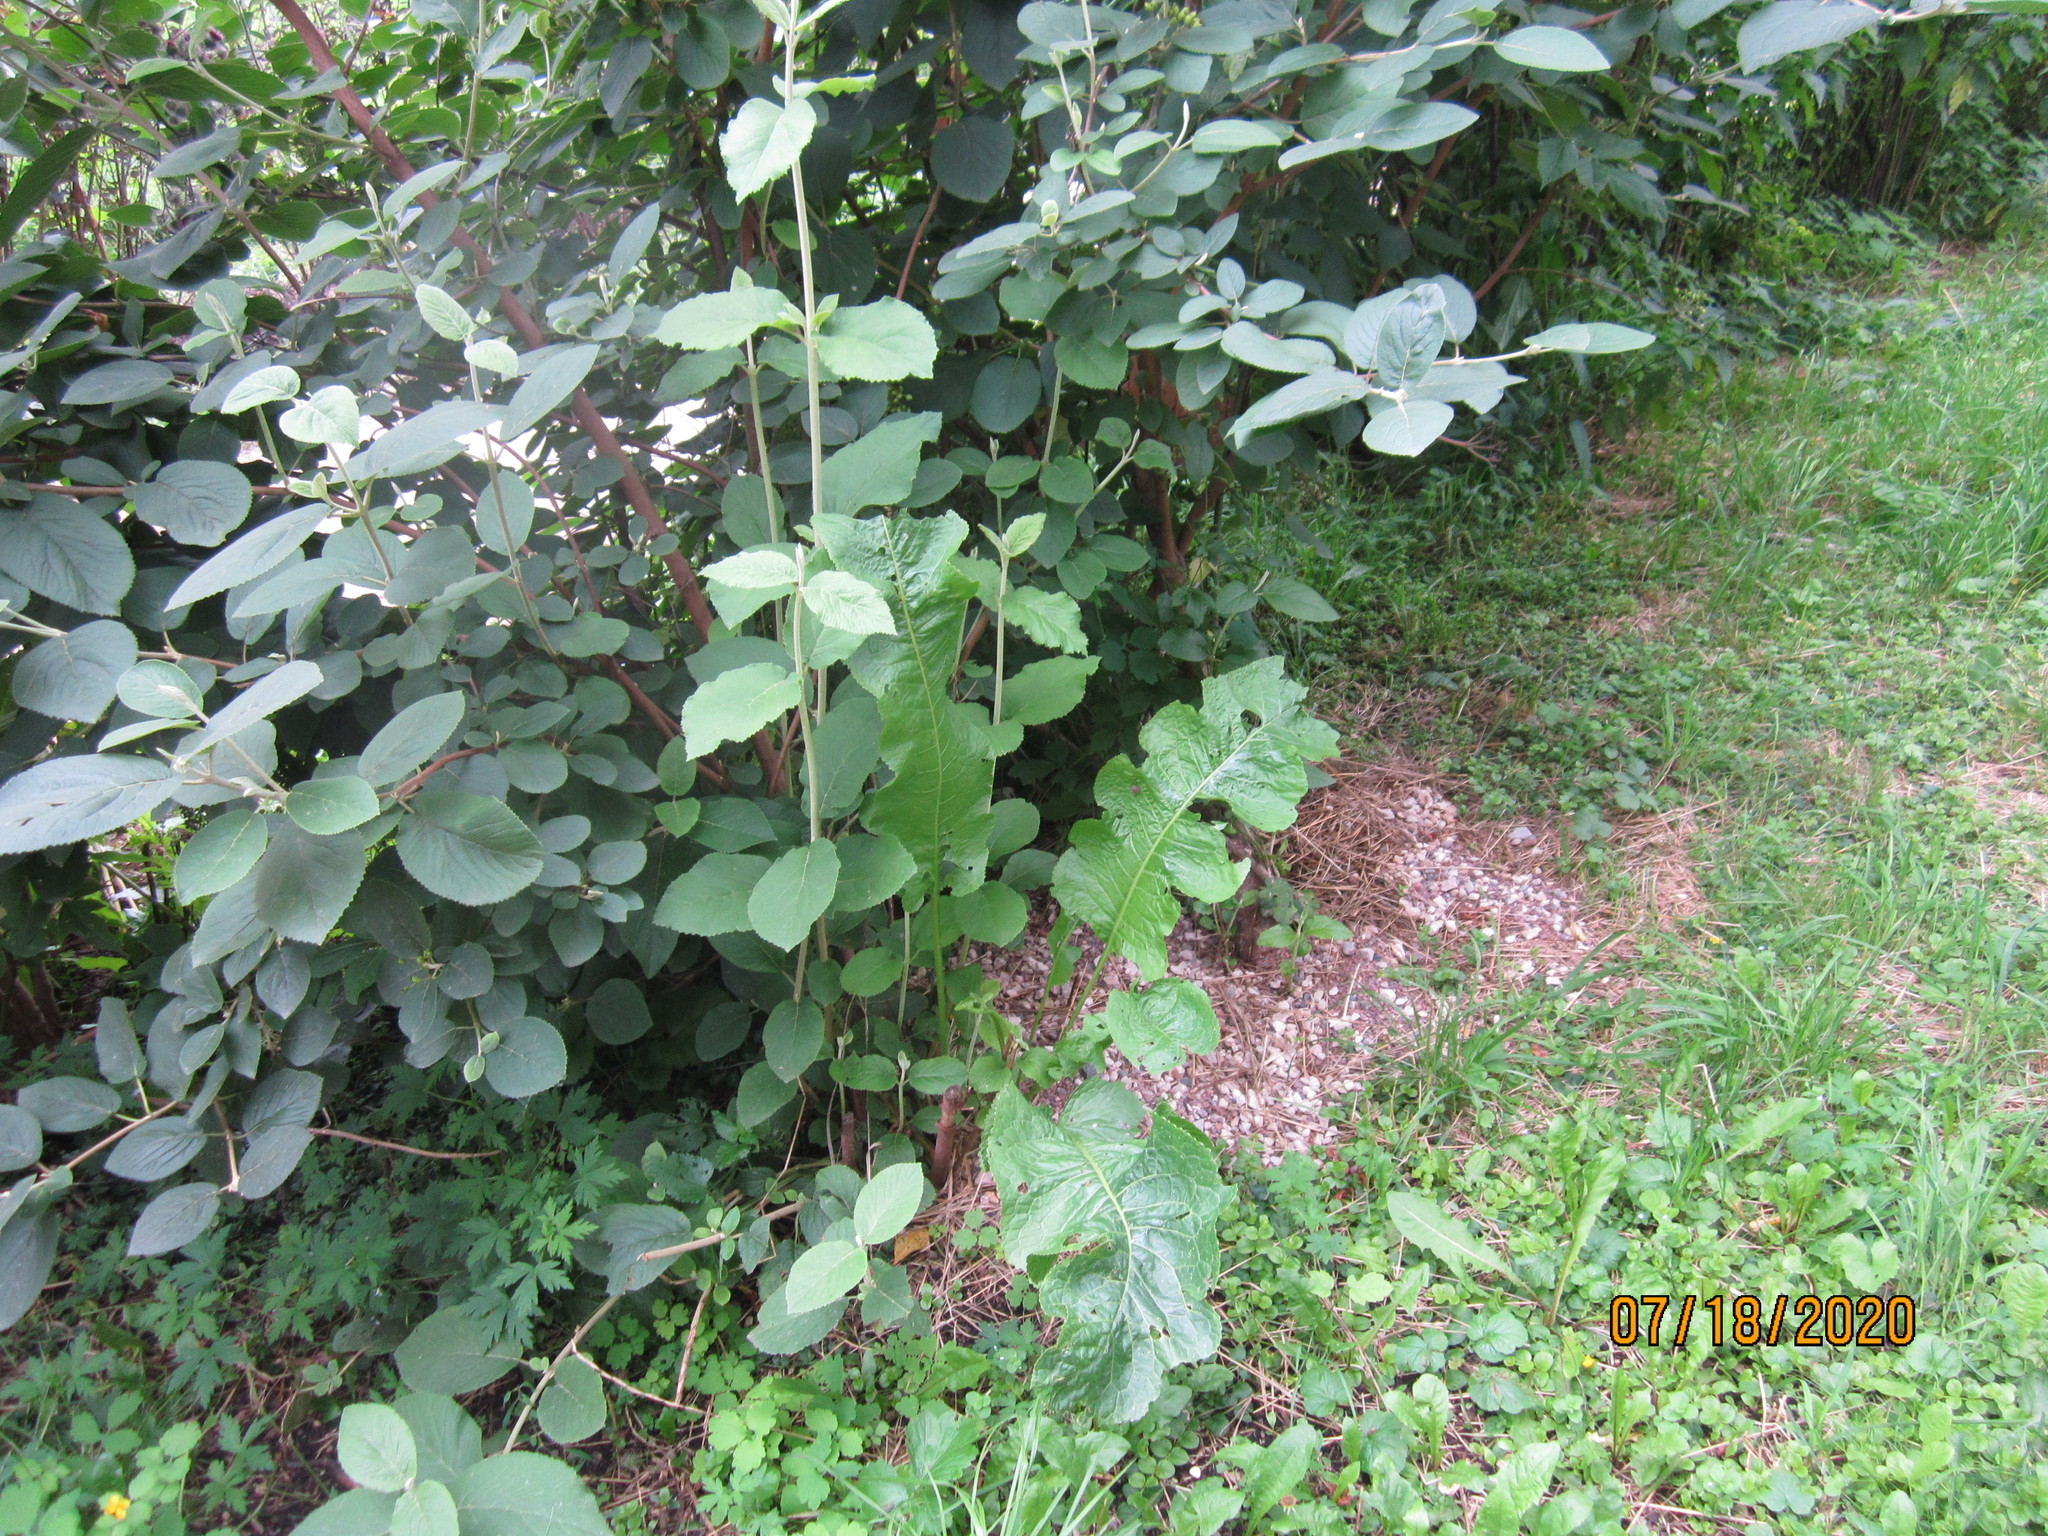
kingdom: Plantae
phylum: Tracheophyta
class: Magnoliopsida
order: Brassicales
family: Brassicaceae
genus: Armoracia
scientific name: Armoracia rusticana
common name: Horseradish
